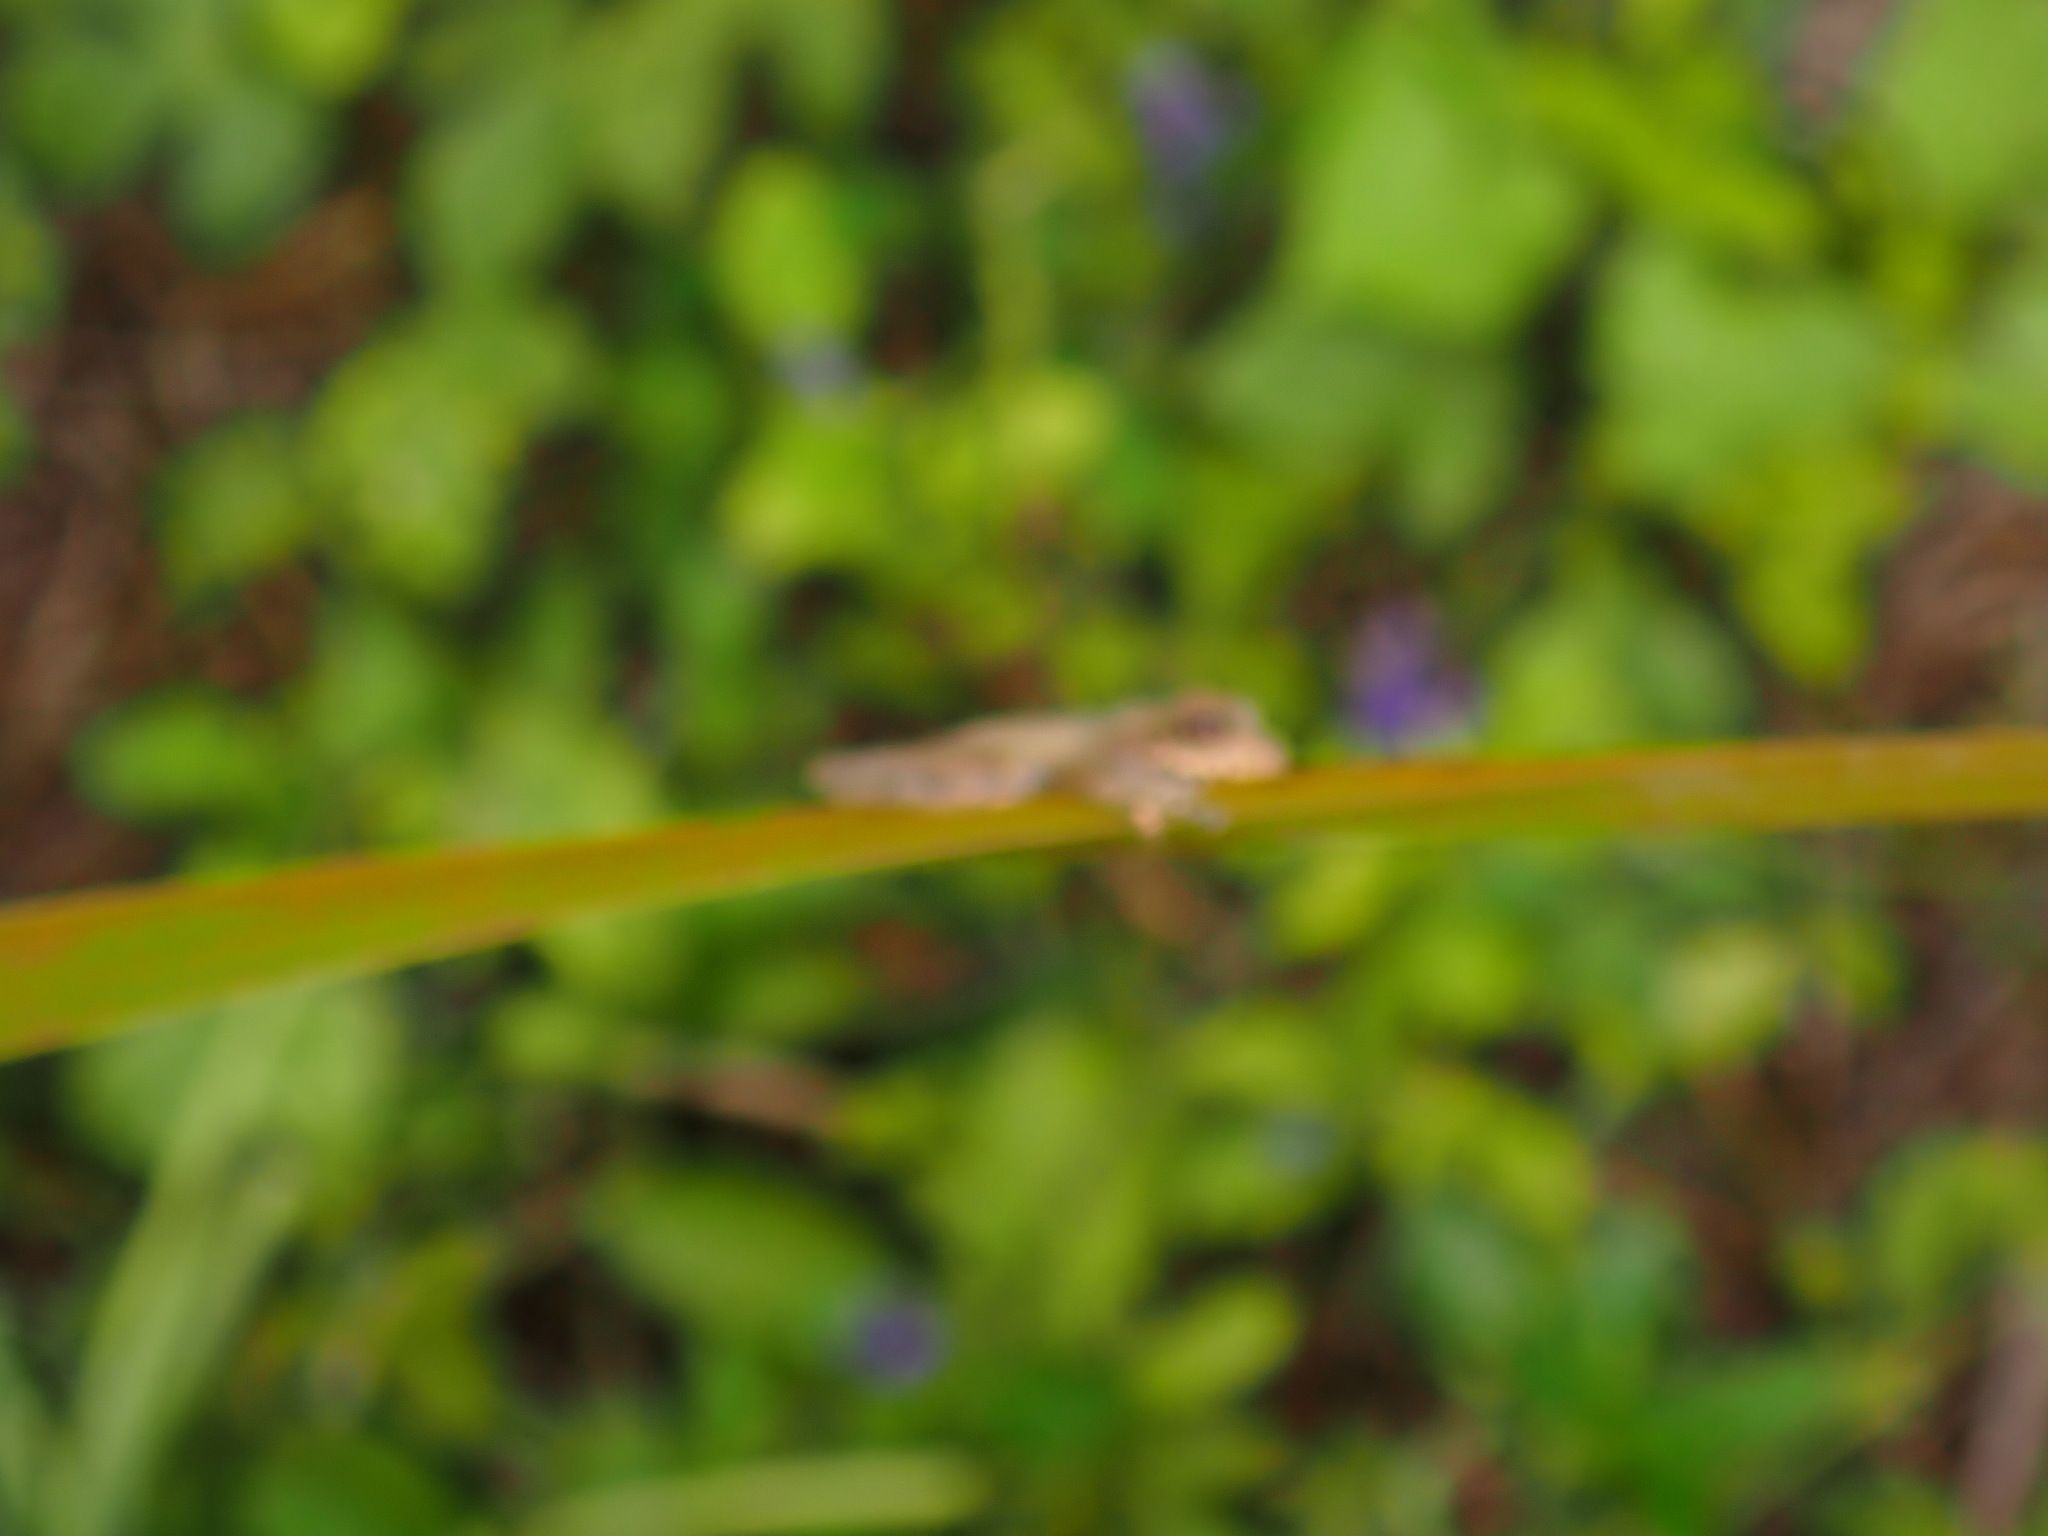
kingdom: Animalia
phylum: Chordata
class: Amphibia
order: Anura
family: Hylidae
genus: Osteopilus
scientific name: Osteopilus dominicensis
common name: Hispaniolan common treefrog
